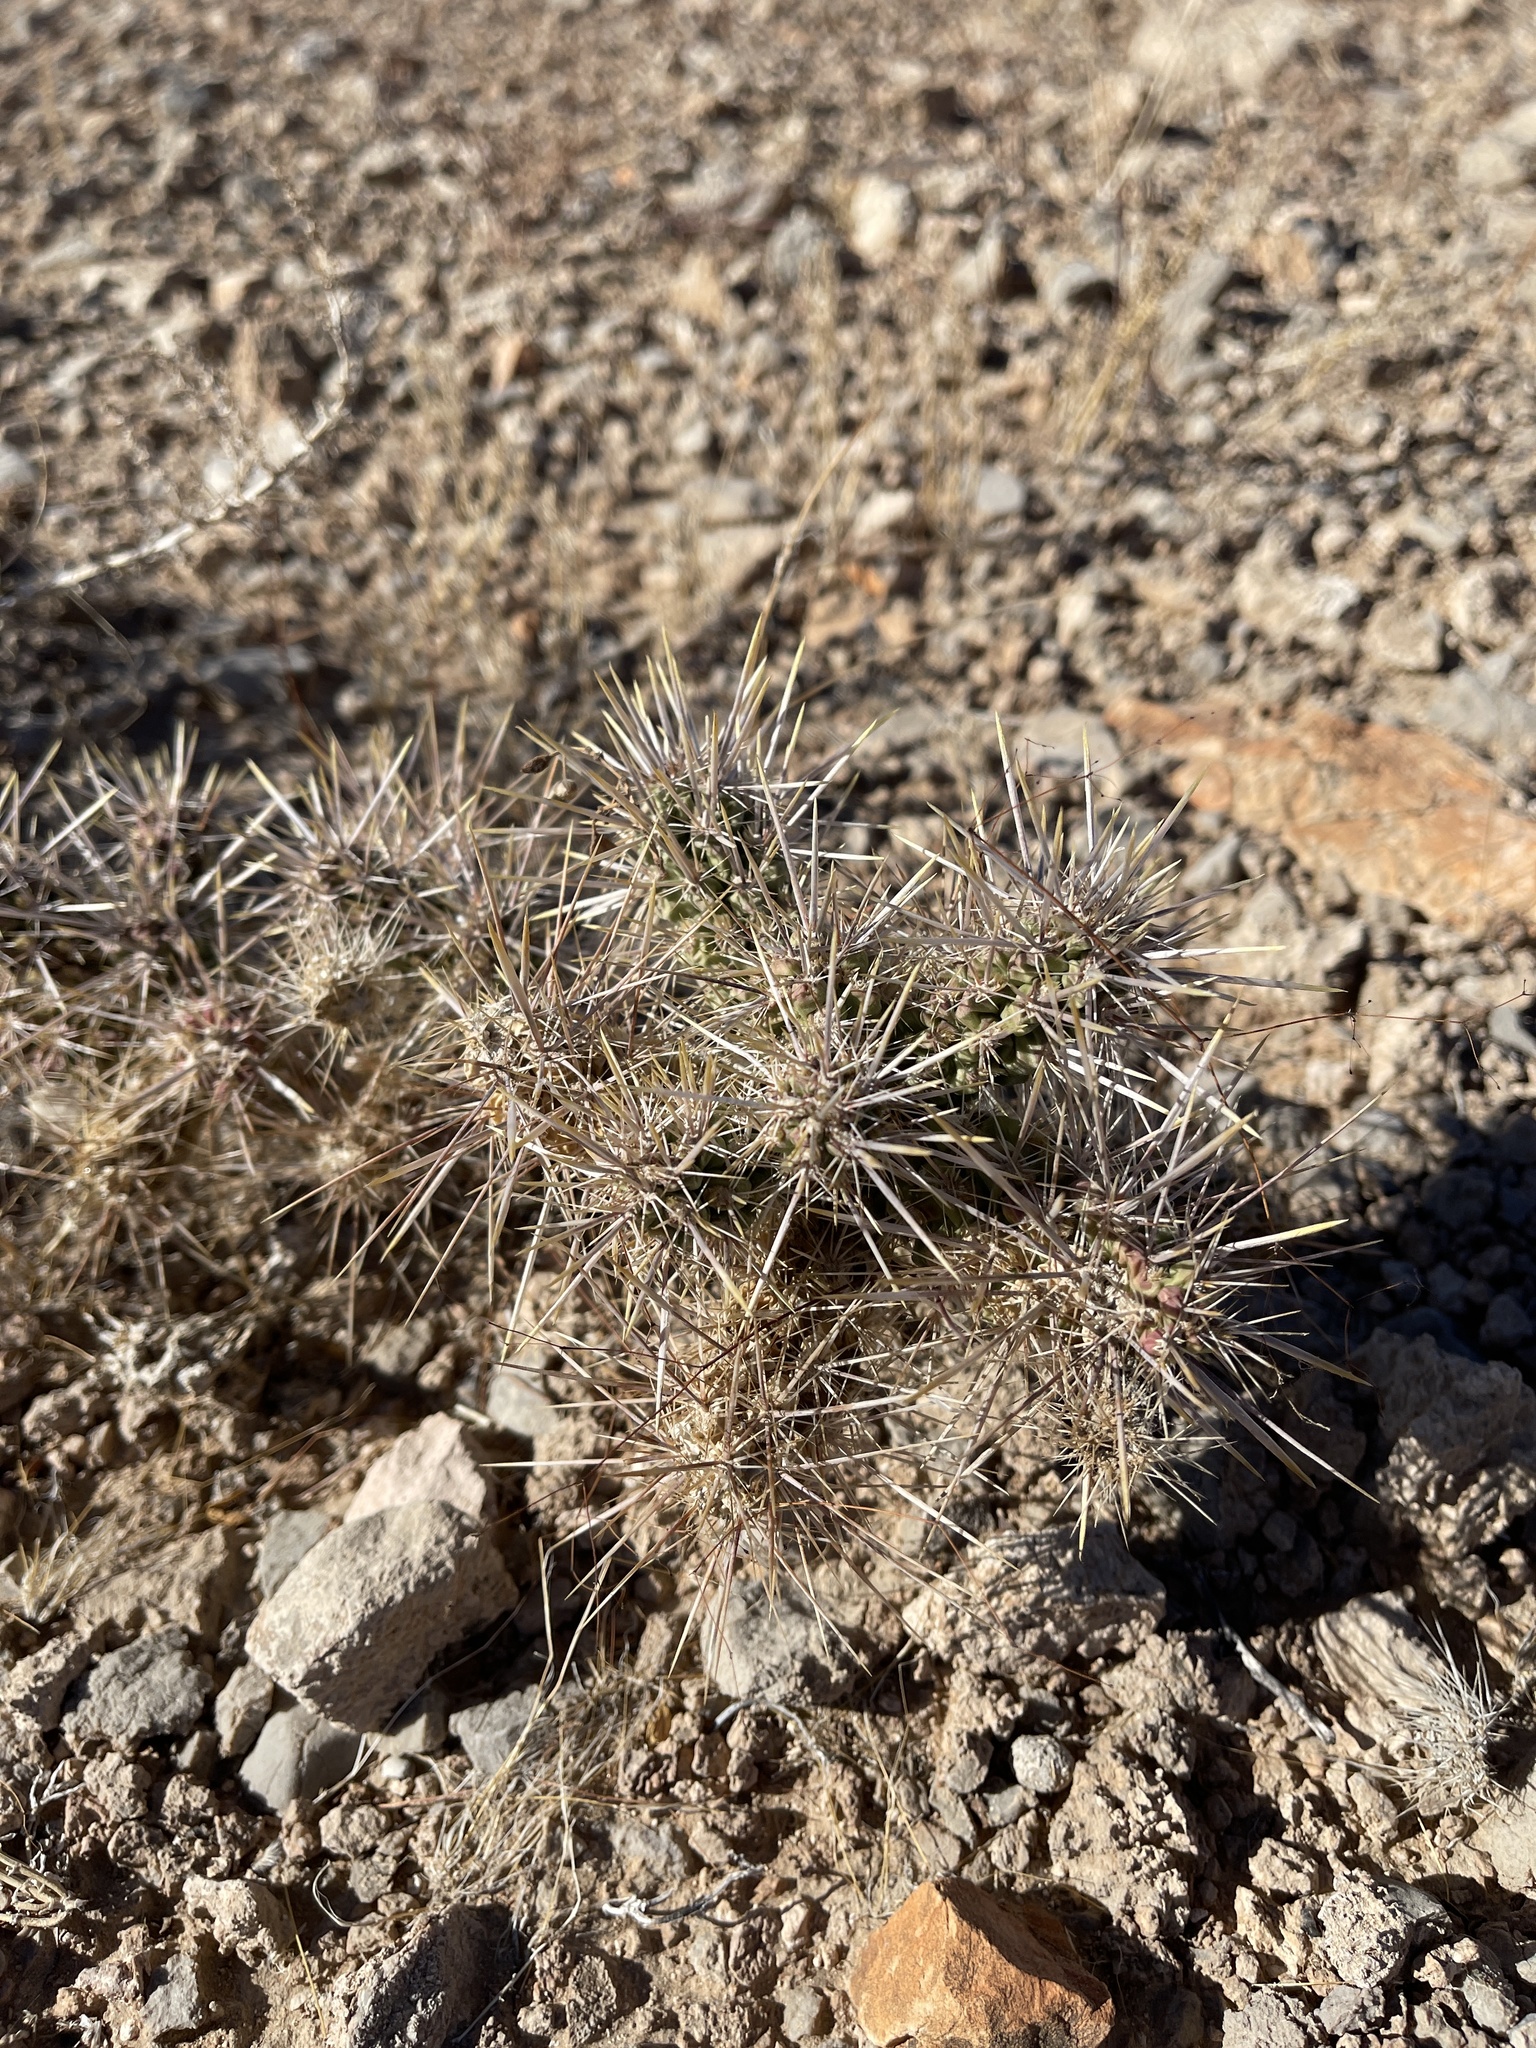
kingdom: Plantae
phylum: Tracheophyta
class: Magnoliopsida
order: Caryophyllales
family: Cactaceae
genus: Cylindropuntia
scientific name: Cylindropuntia echinocarpa
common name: Ground cholla
